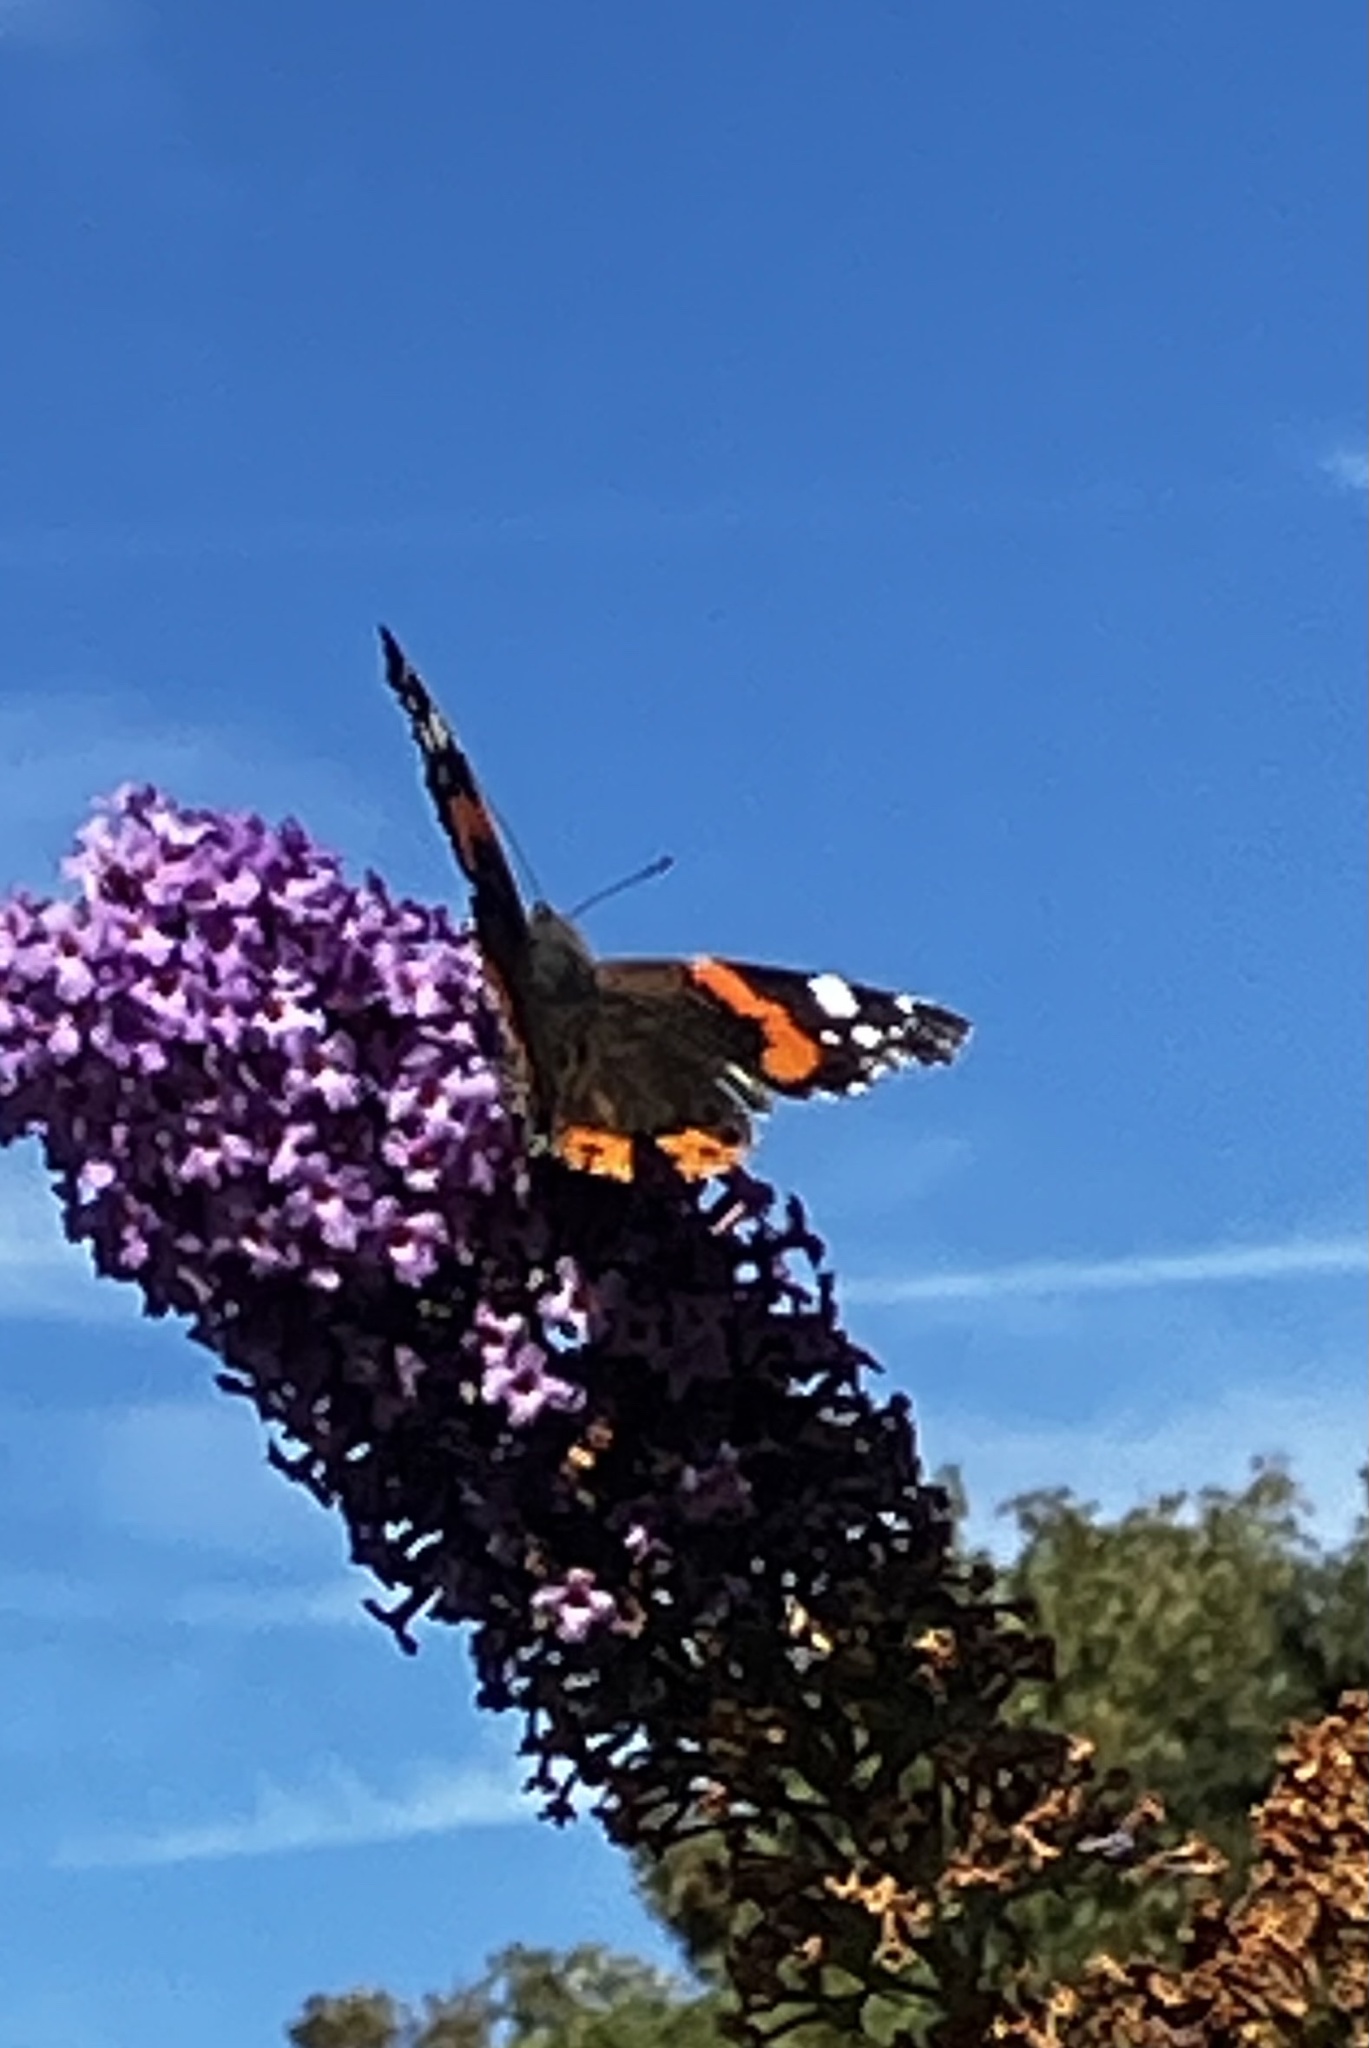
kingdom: Animalia
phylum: Arthropoda
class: Insecta
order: Lepidoptera
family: Nymphalidae
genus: Vanessa
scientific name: Vanessa atalanta
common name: Red admiral
